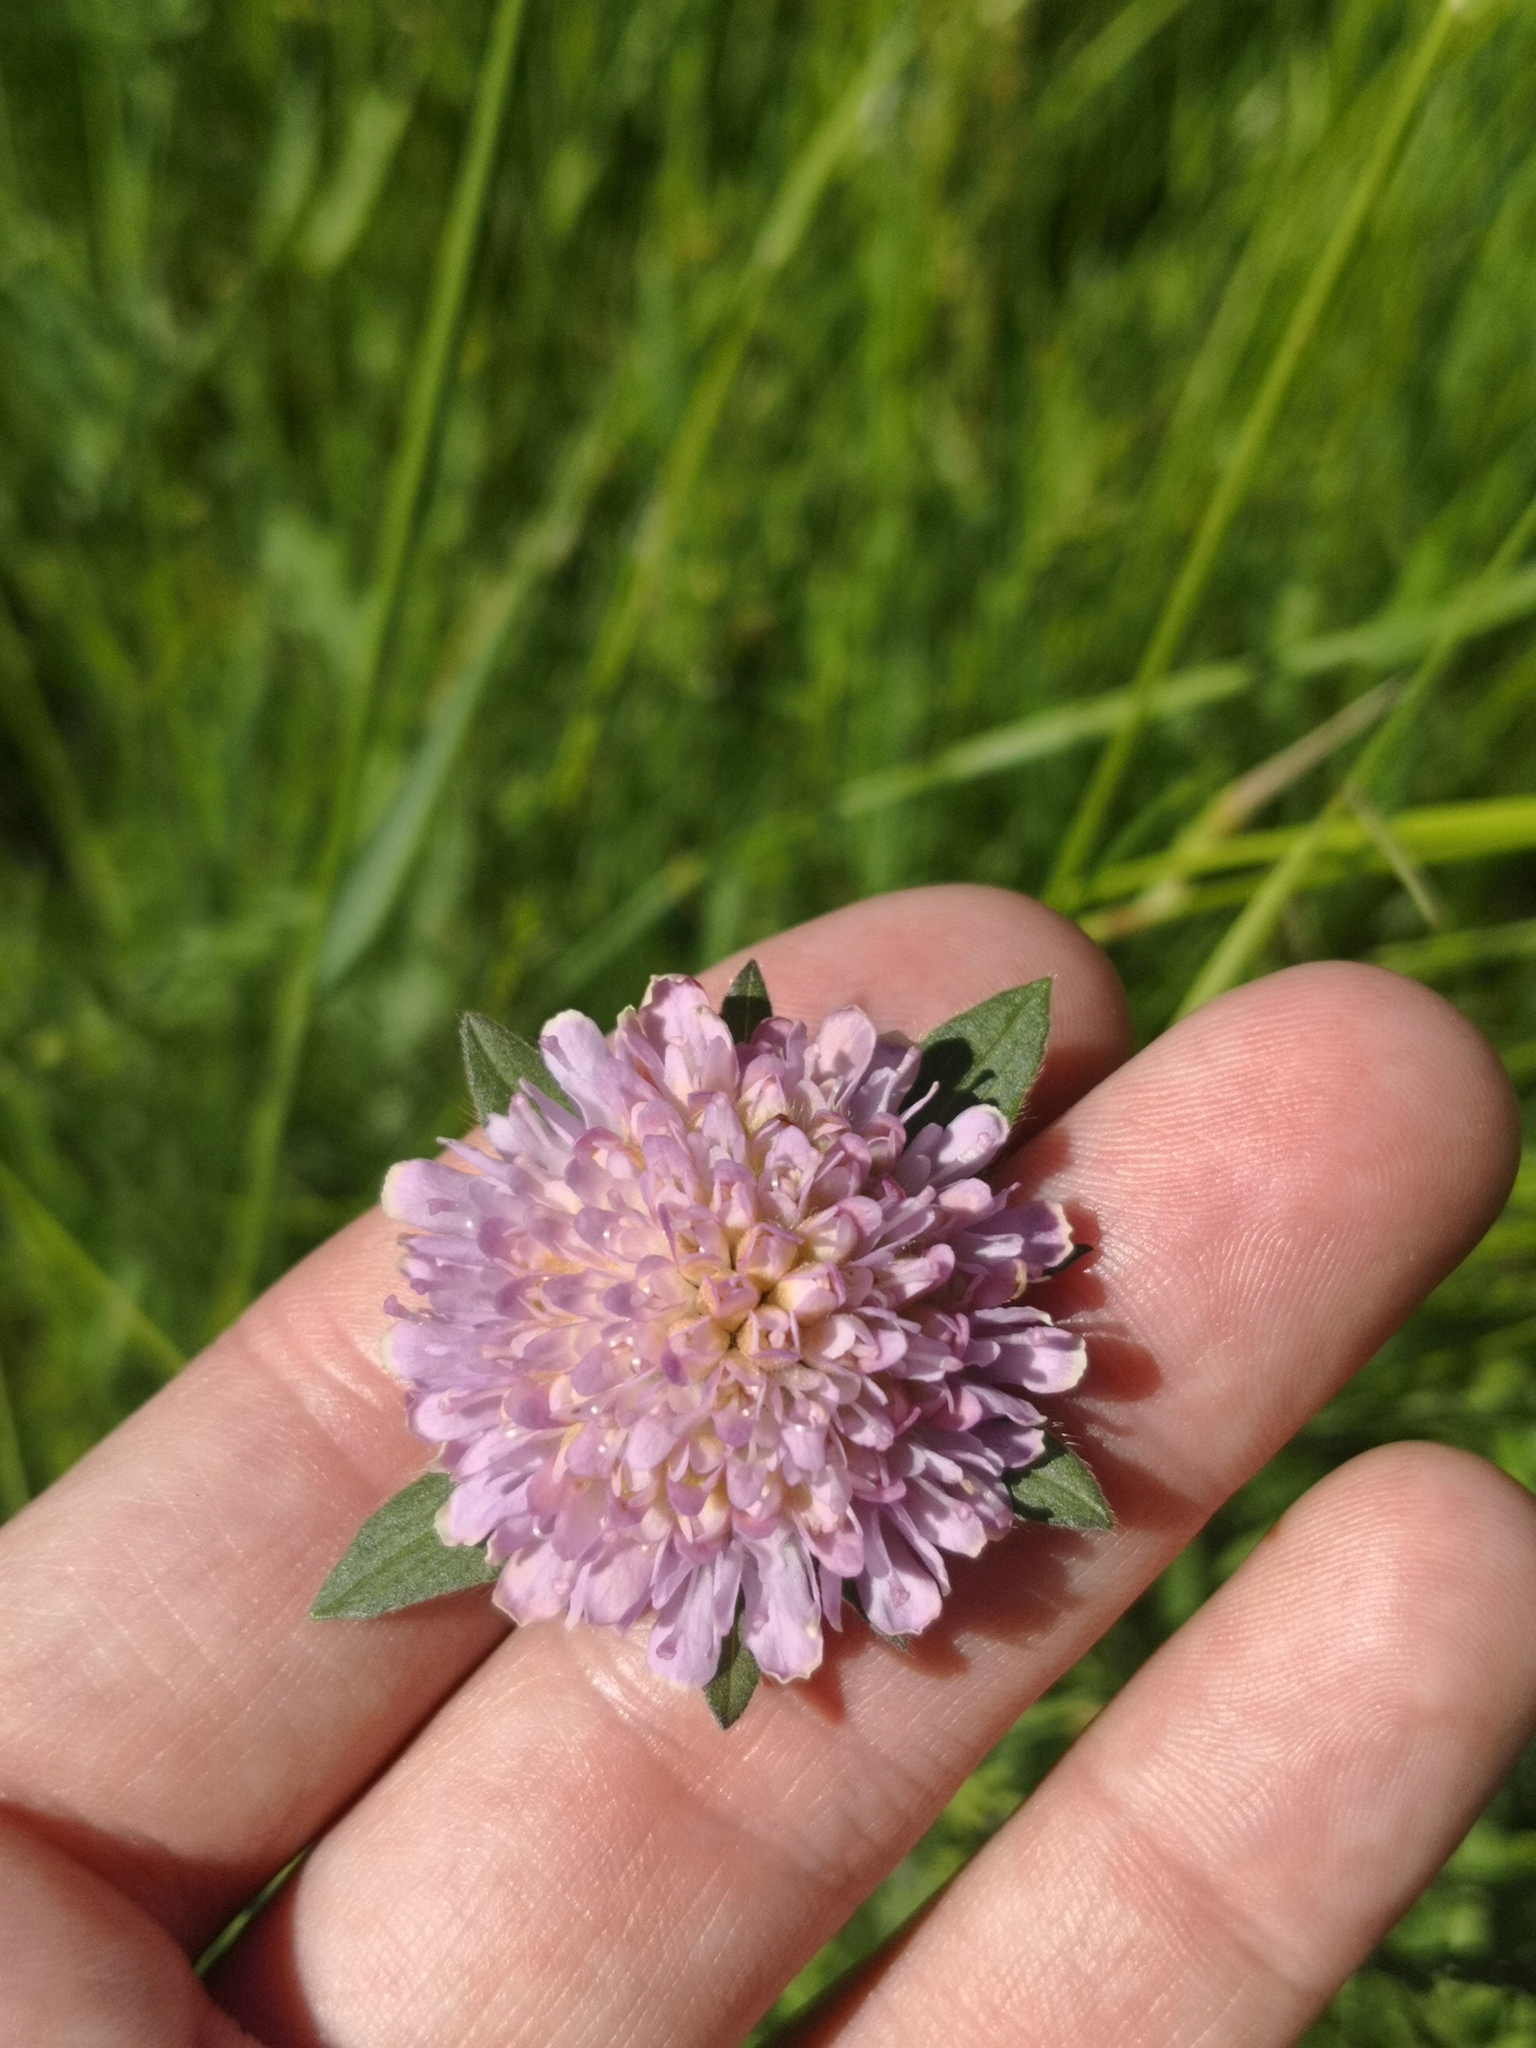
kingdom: Plantae
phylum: Tracheophyta
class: Magnoliopsida
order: Dipsacales
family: Caprifoliaceae
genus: Knautia
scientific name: Knautia arvensis
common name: Field scabiosa
